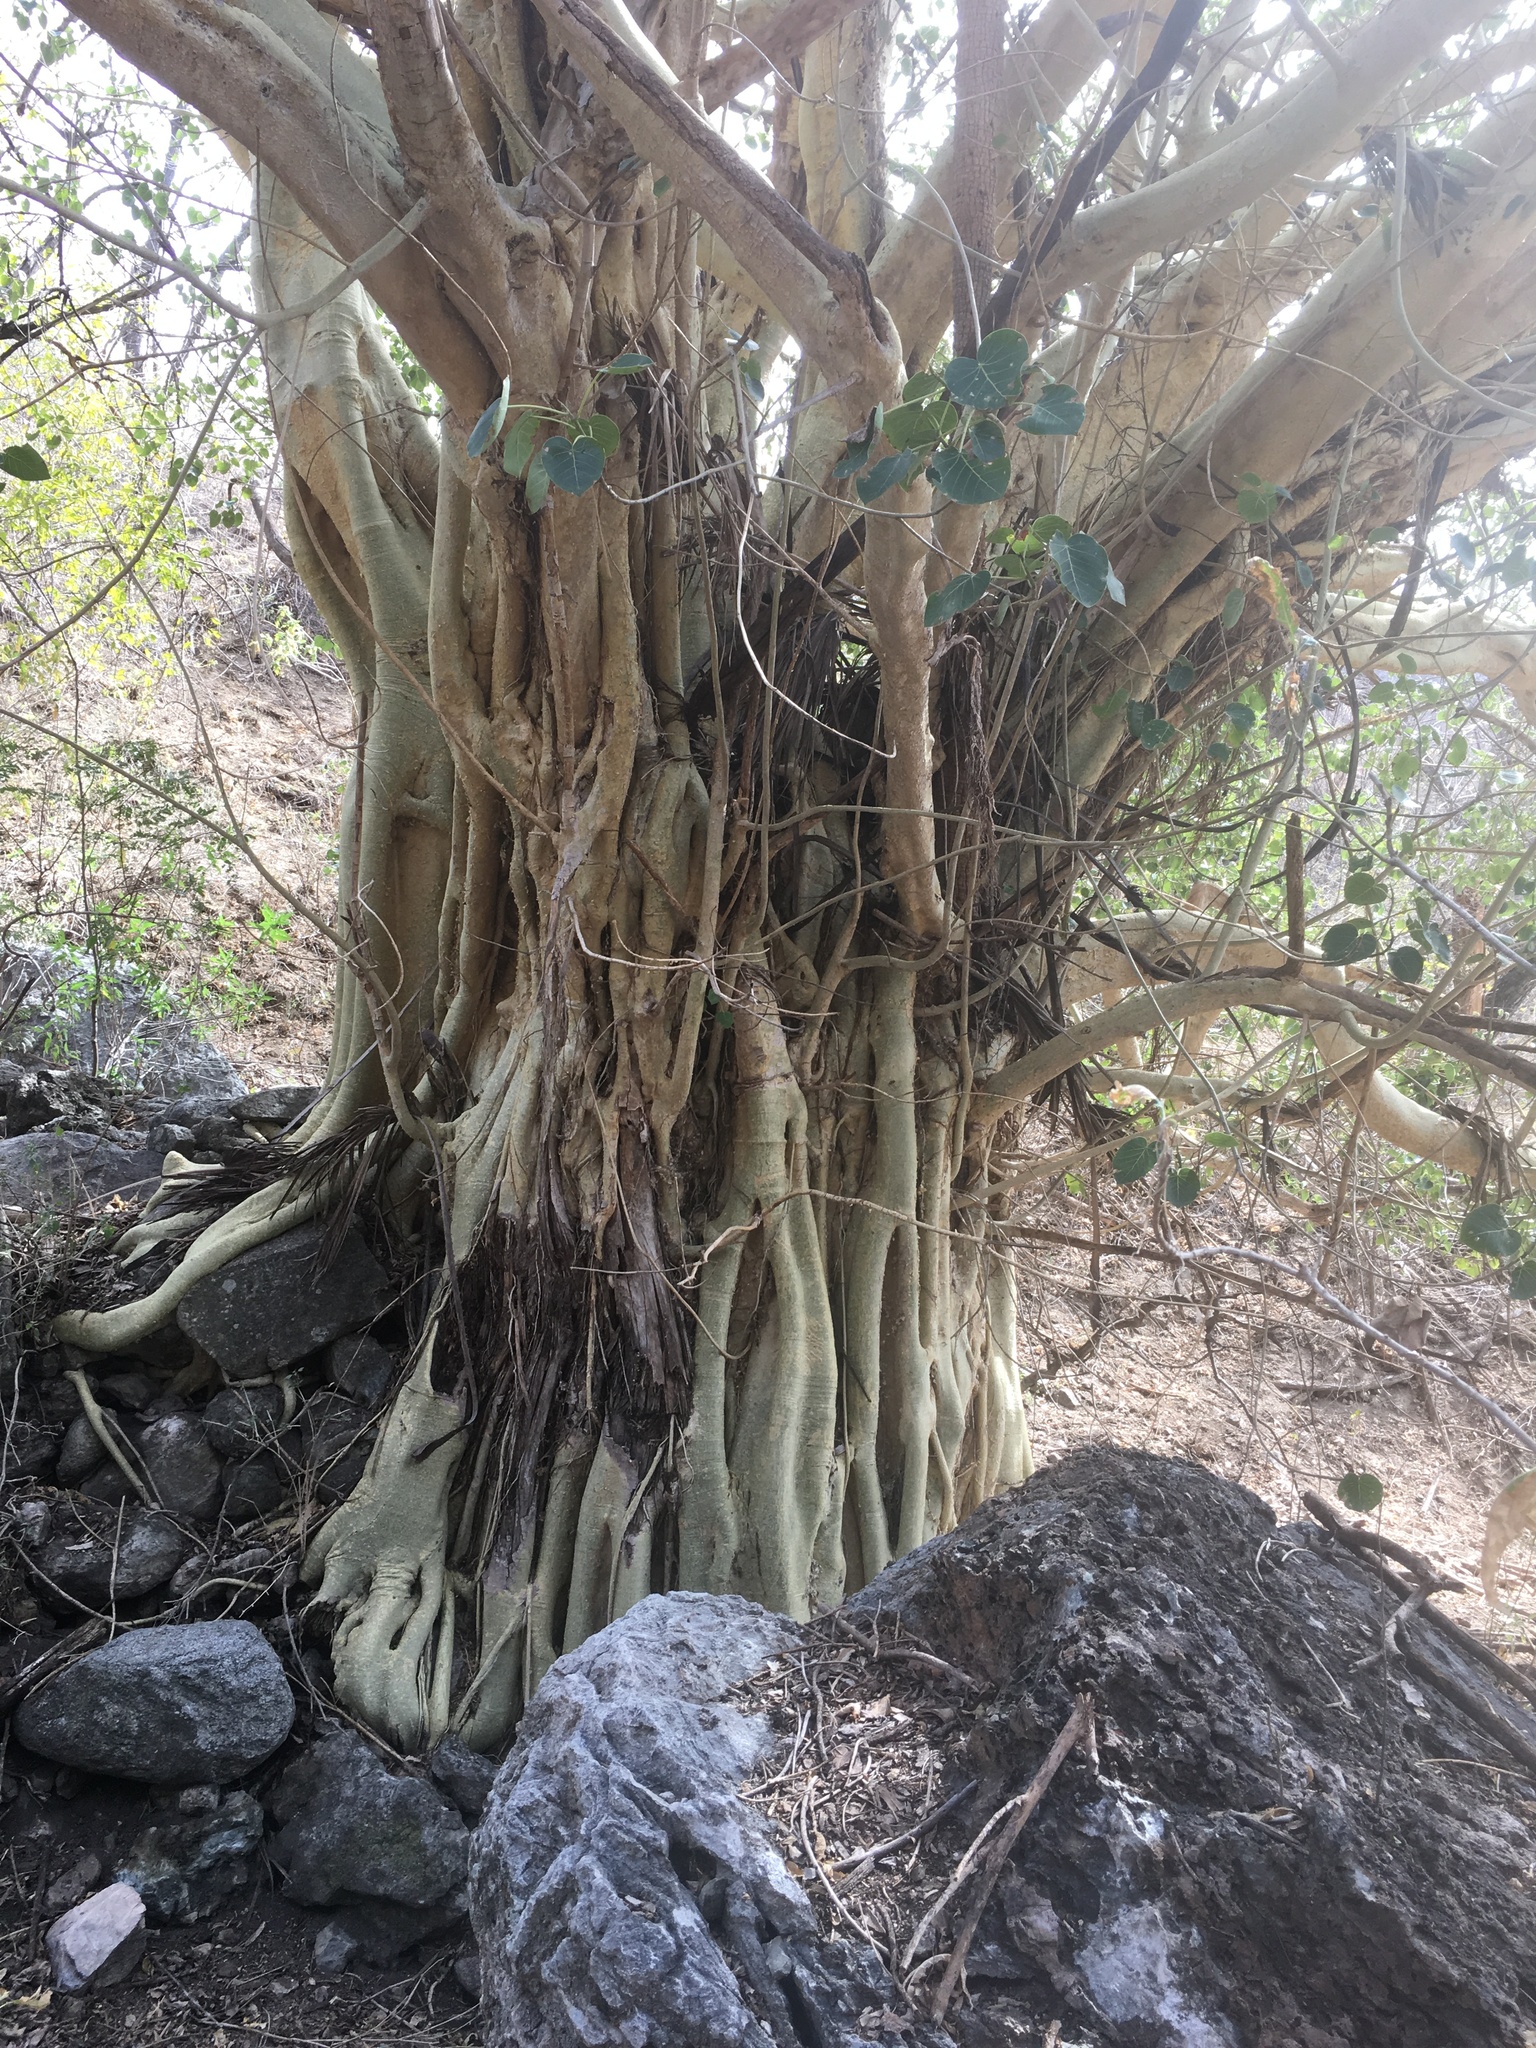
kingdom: Plantae
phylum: Tracheophyta
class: Magnoliopsida
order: Rosales
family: Moraceae
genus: Ficus
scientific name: Ficus petiolaris
